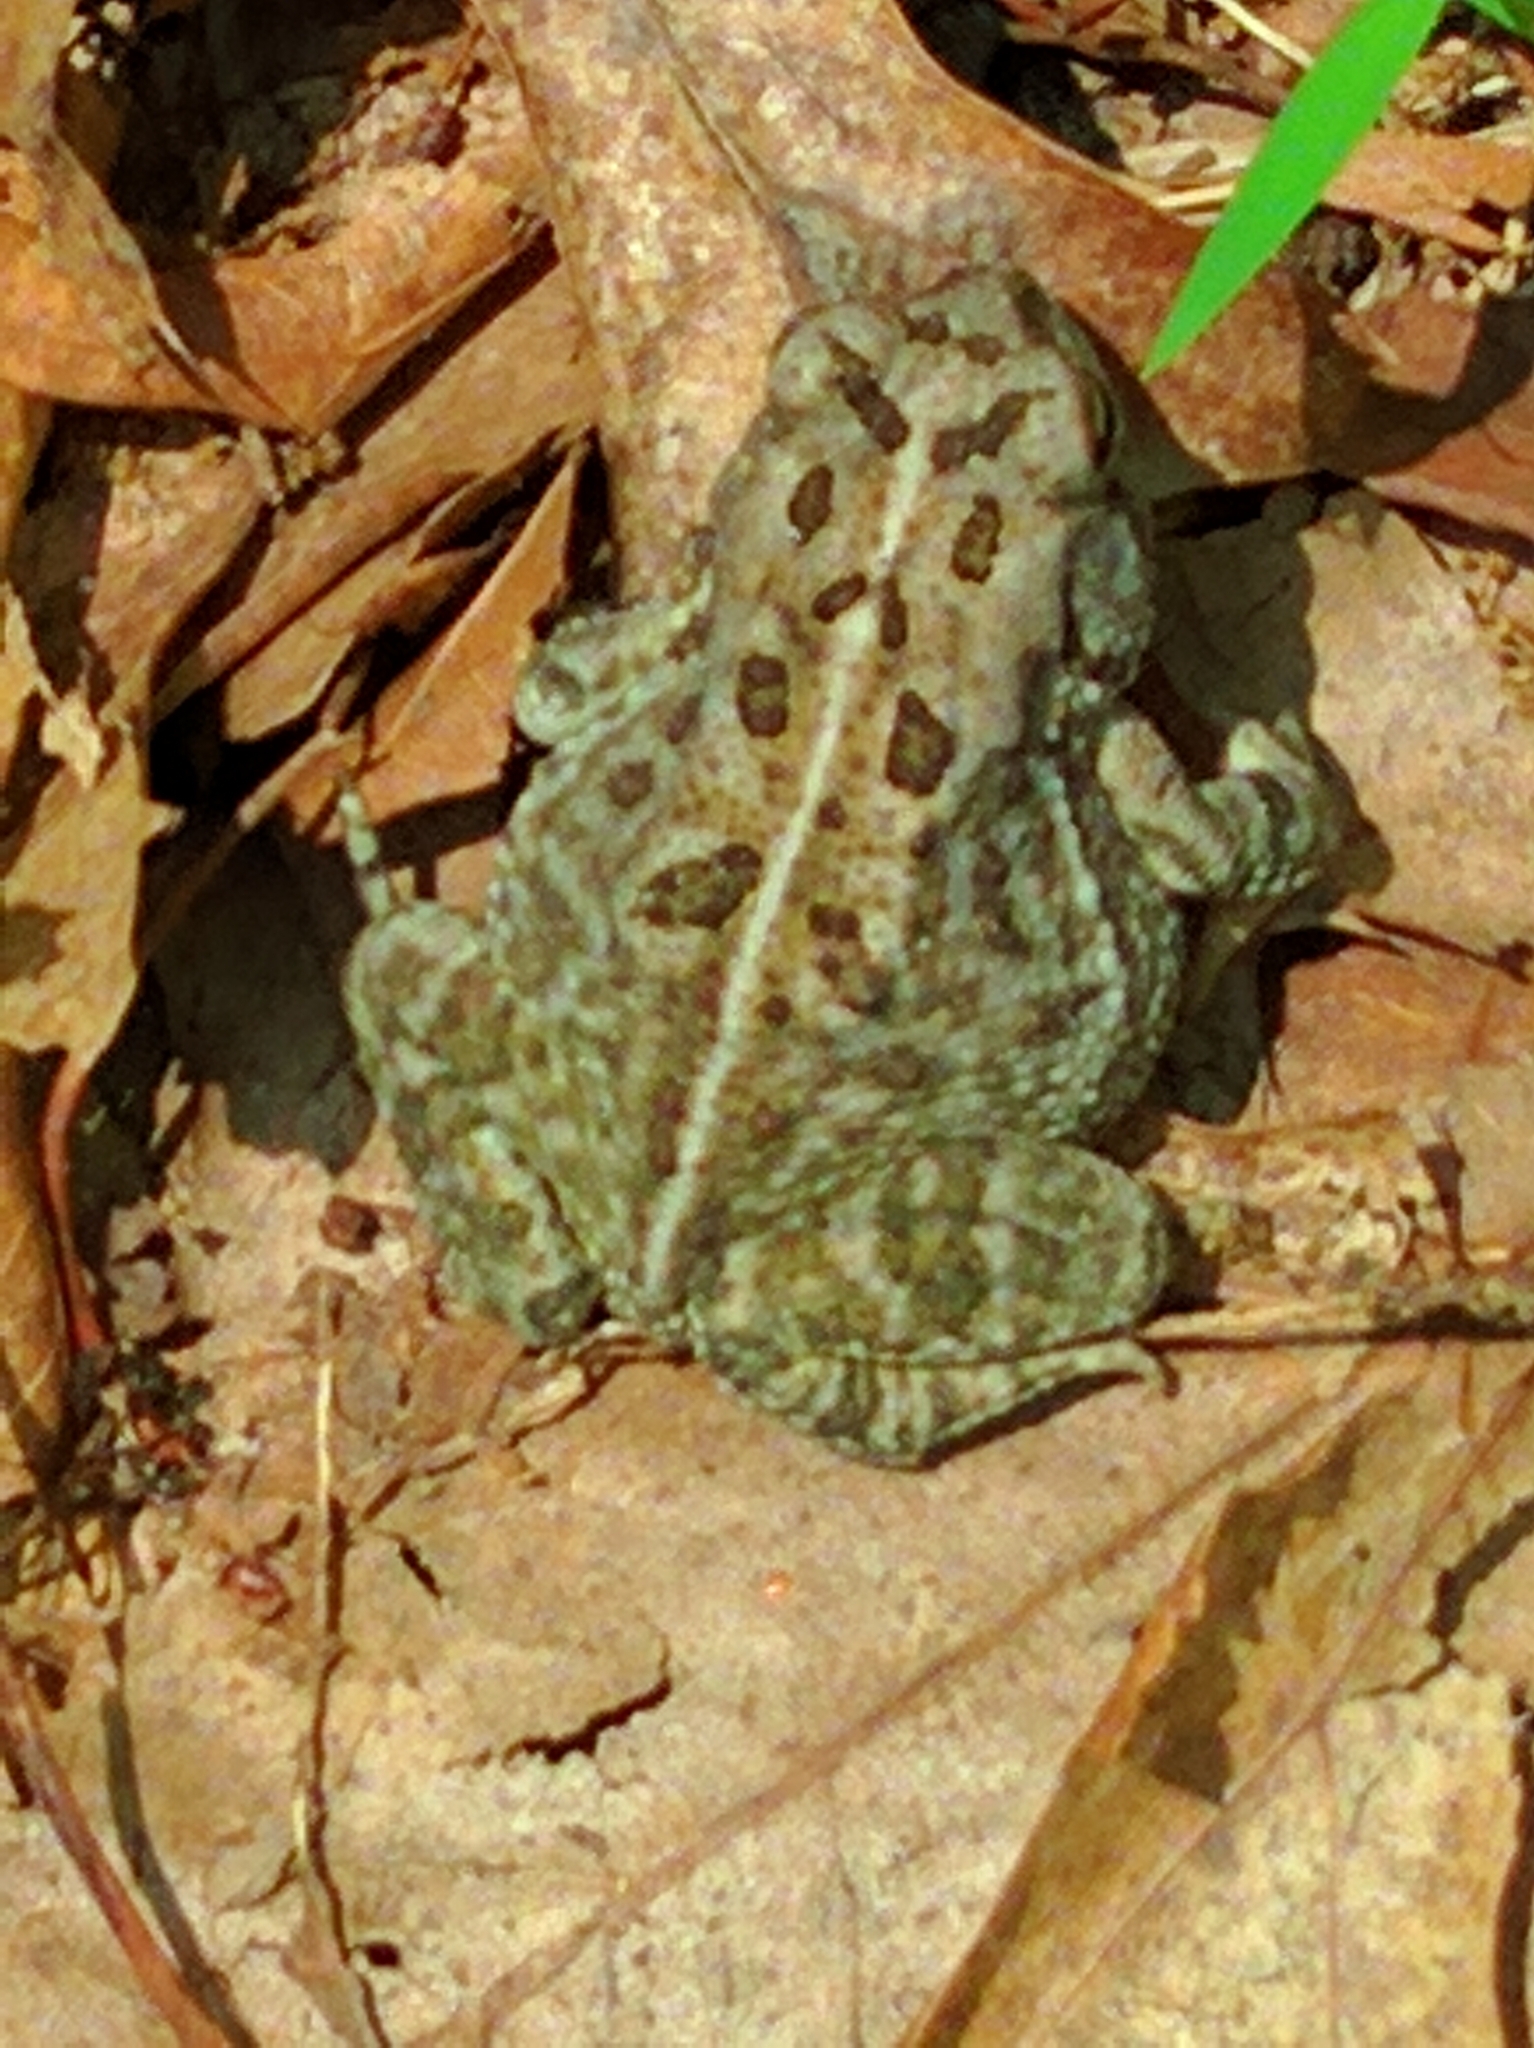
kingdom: Animalia
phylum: Chordata
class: Amphibia
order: Anura
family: Bufonidae
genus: Anaxyrus
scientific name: Anaxyrus fowleri
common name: Fowler's toad
